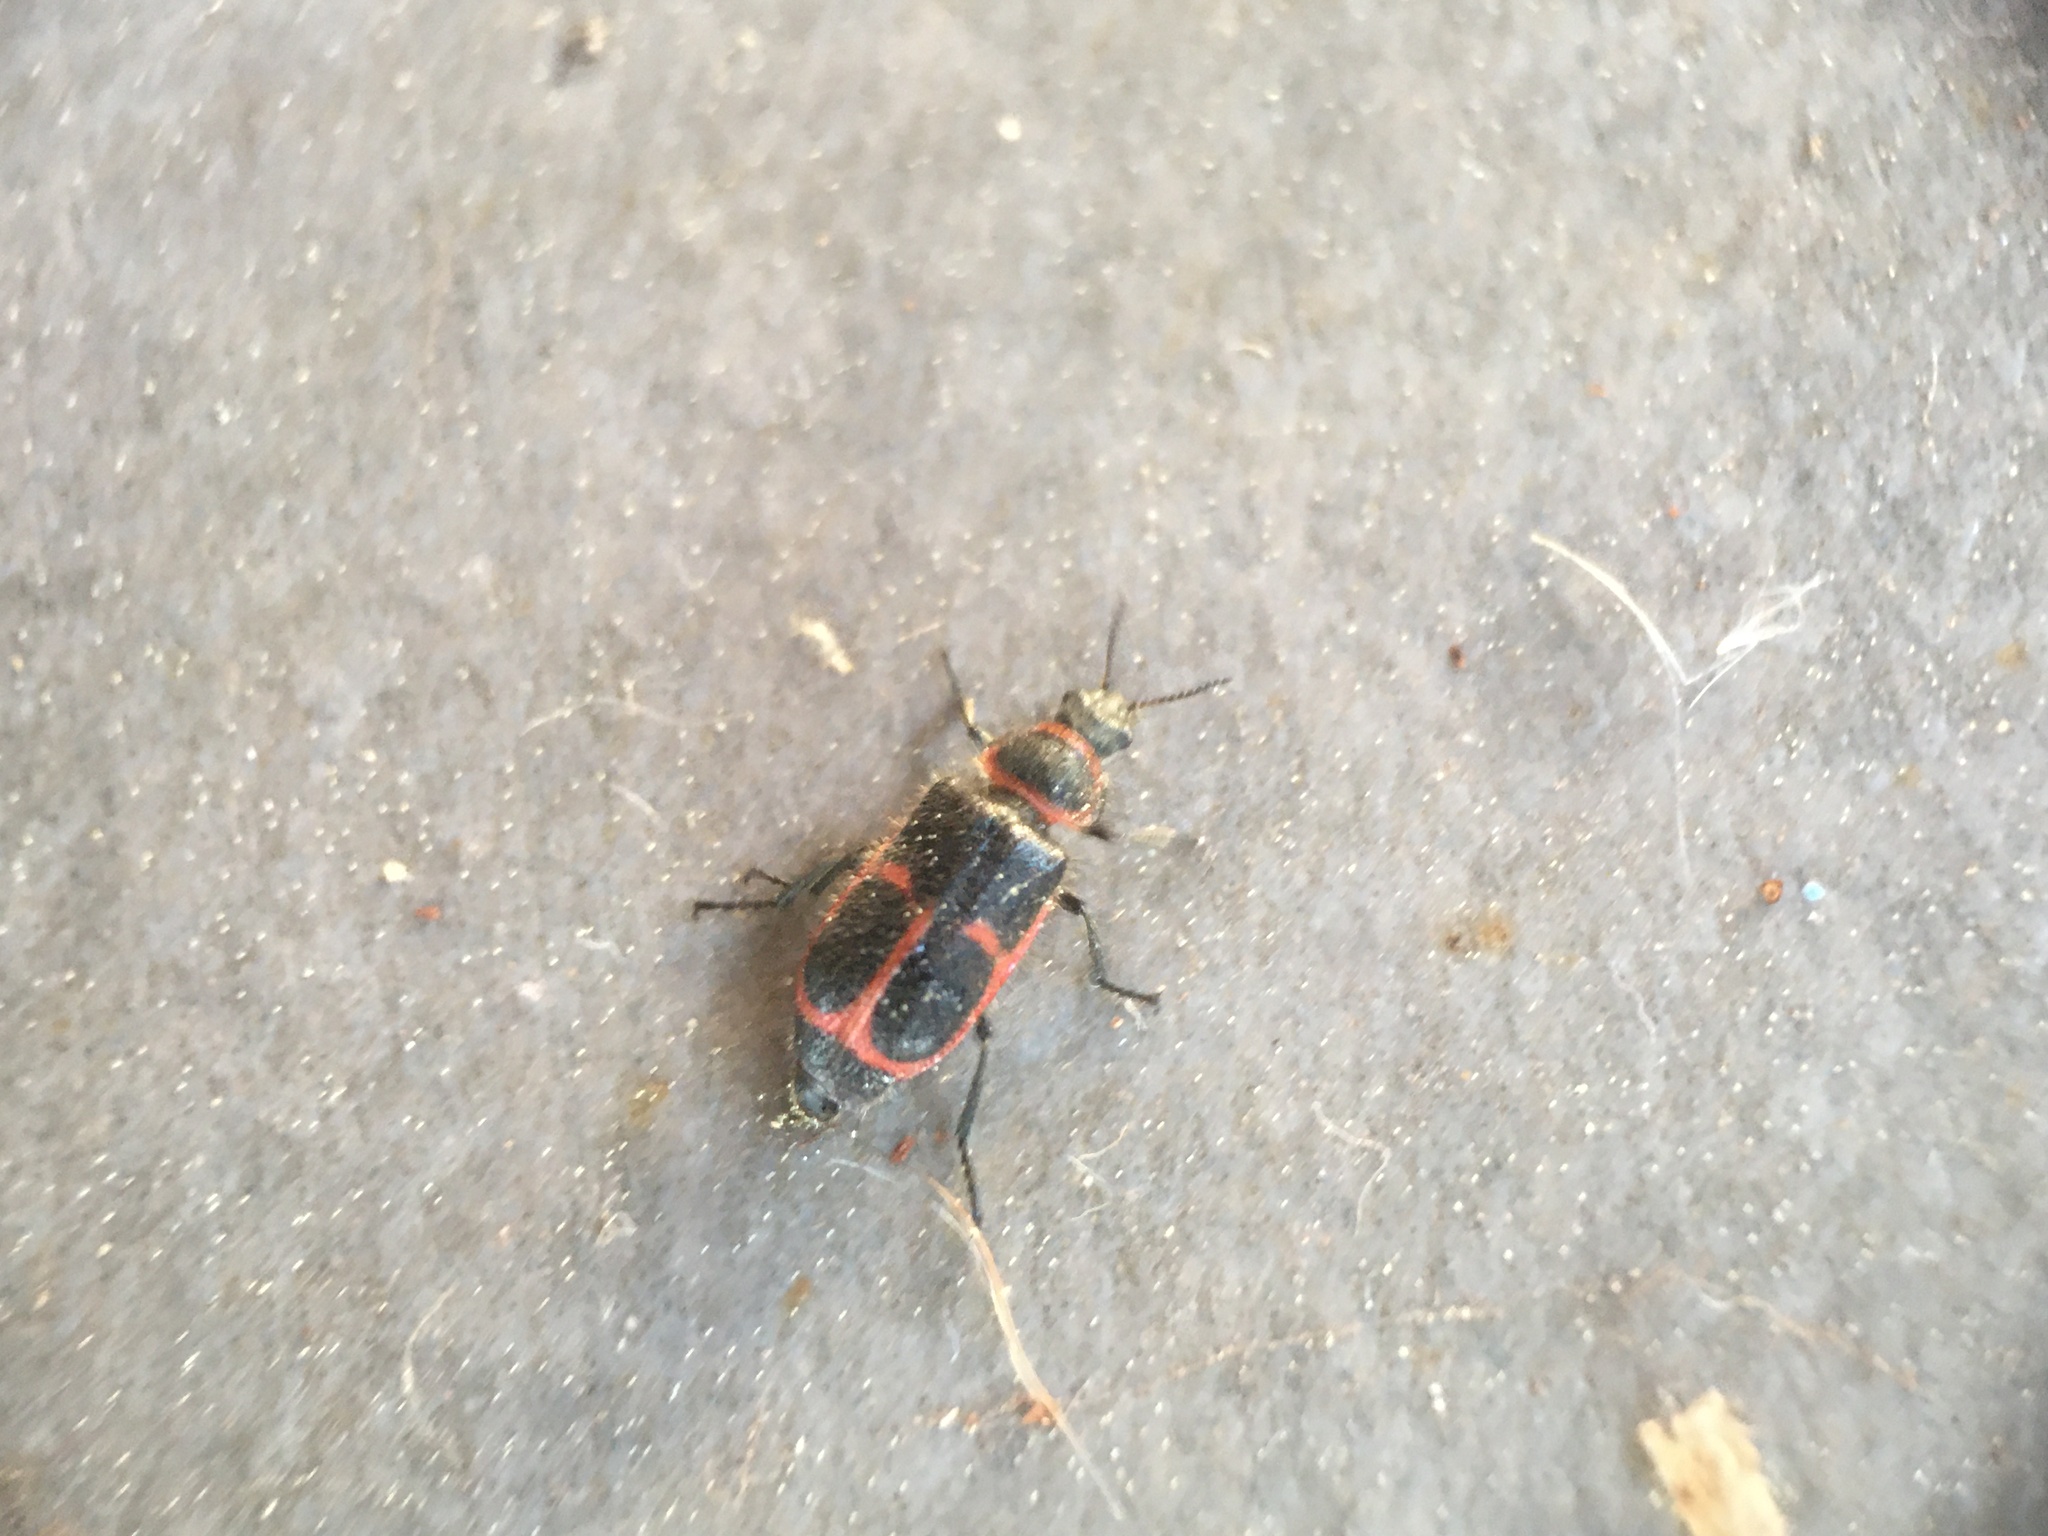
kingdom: Animalia
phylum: Arthropoda
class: Insecta
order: Coleoptera
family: Melyridae
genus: Astylus
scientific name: Astylus
